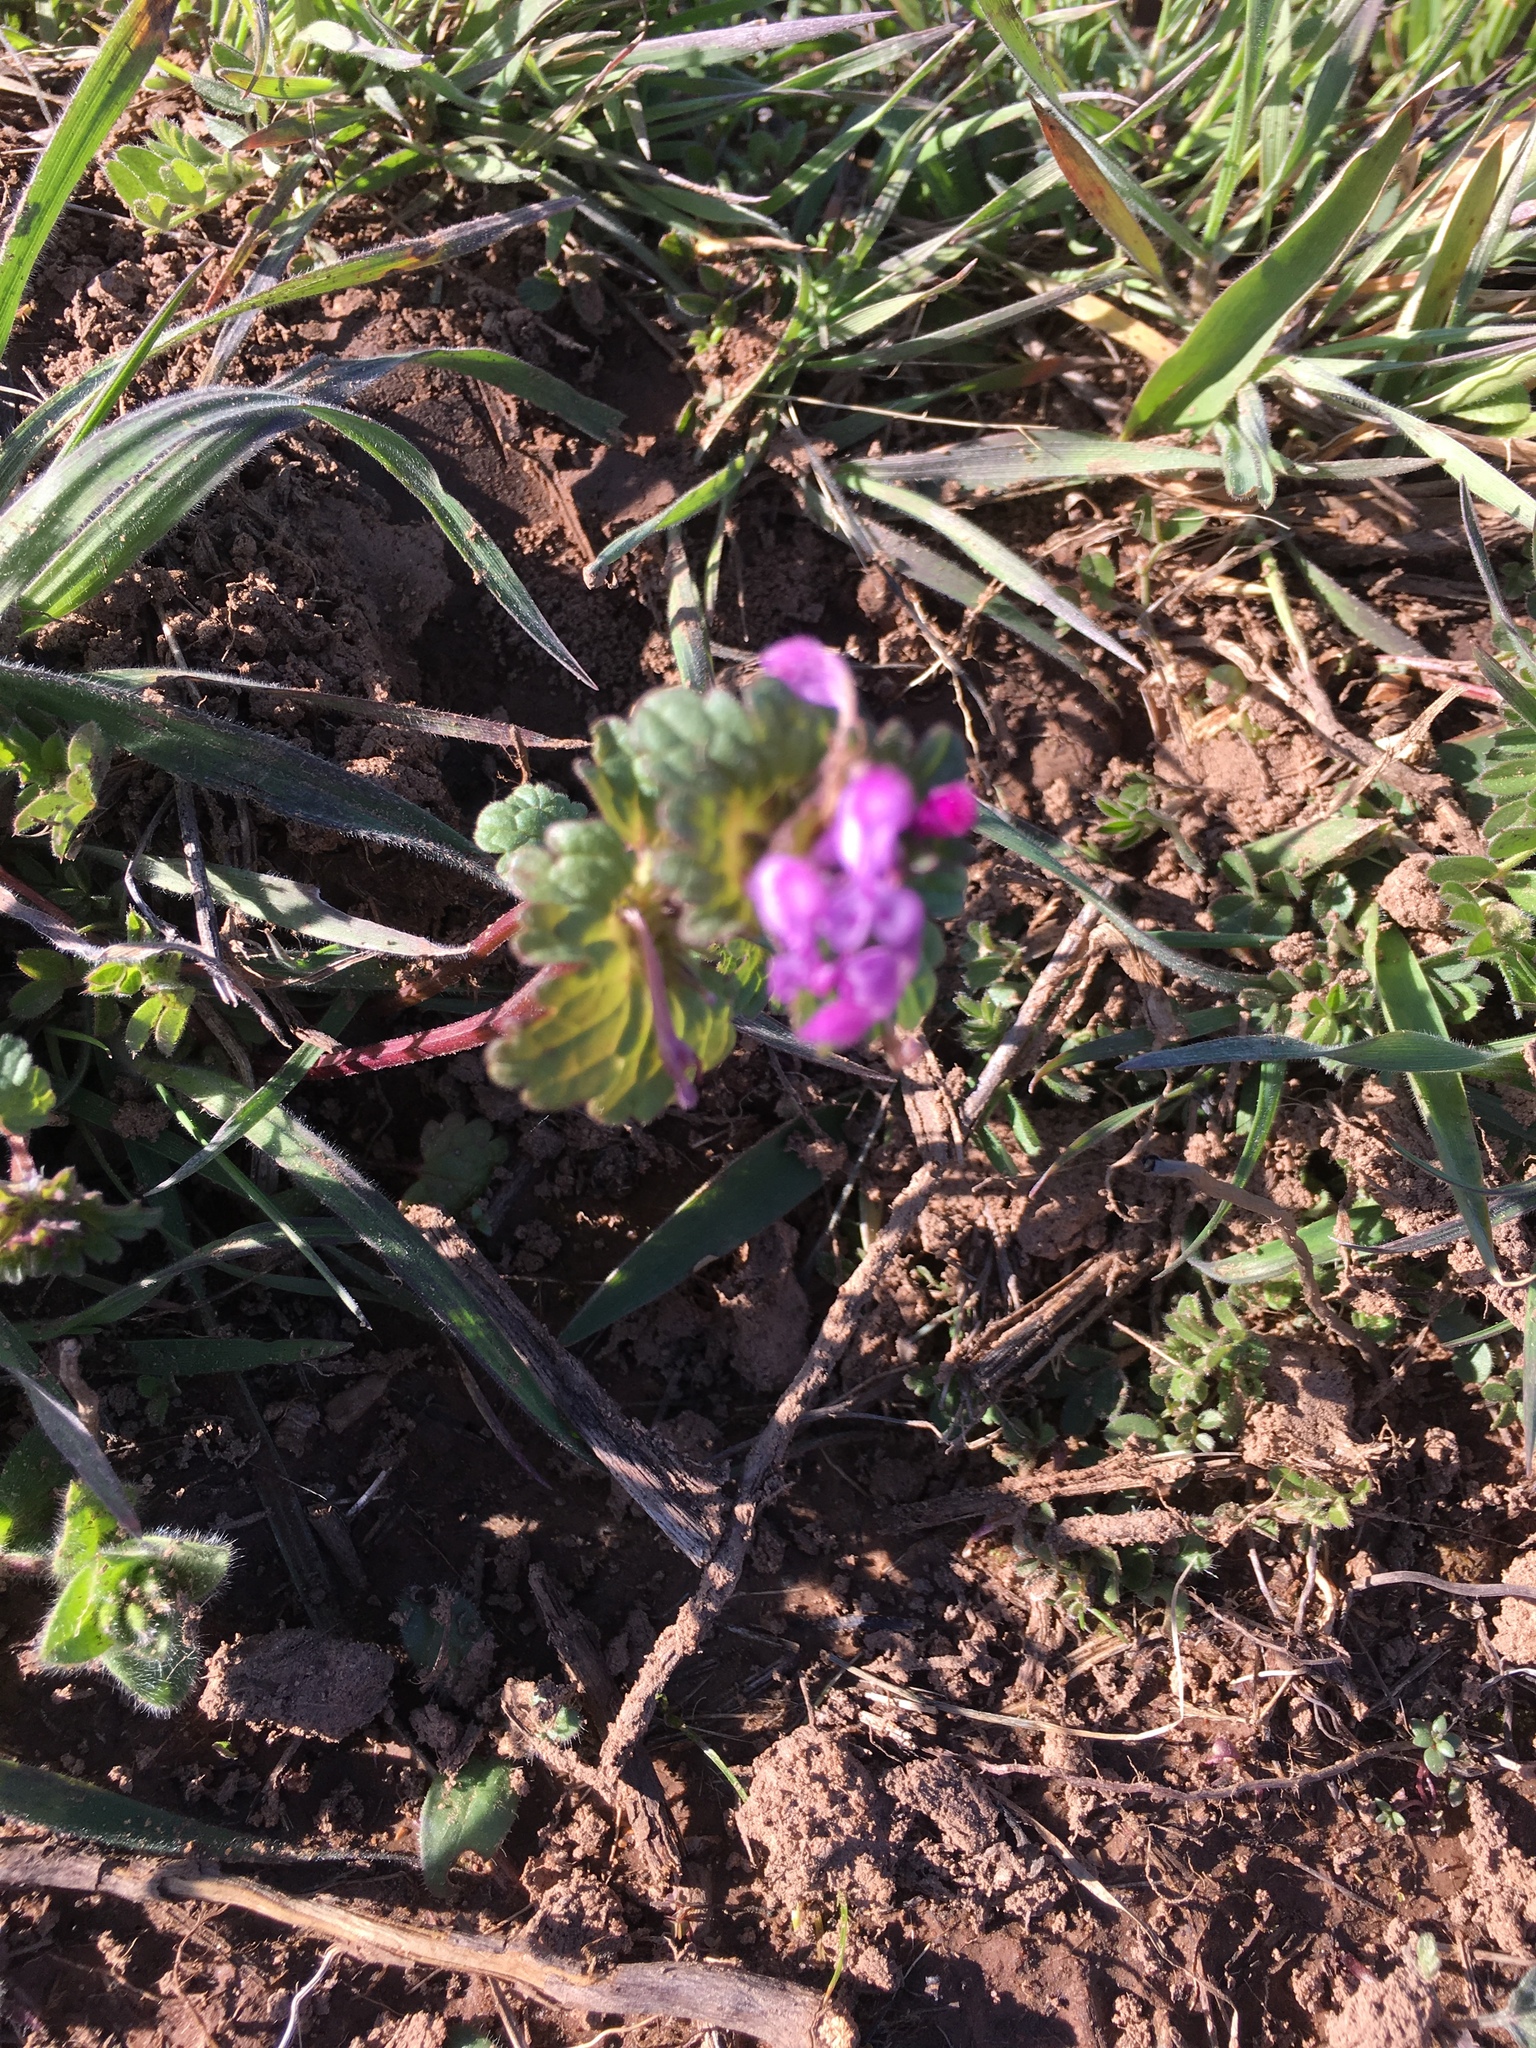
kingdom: Plantae
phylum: Tracheophyta
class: Magnoliopsida
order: Lamiales
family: Lamiaceae
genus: Lamium
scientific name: Lamium amplexicaule
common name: Henbit dead-nettle
